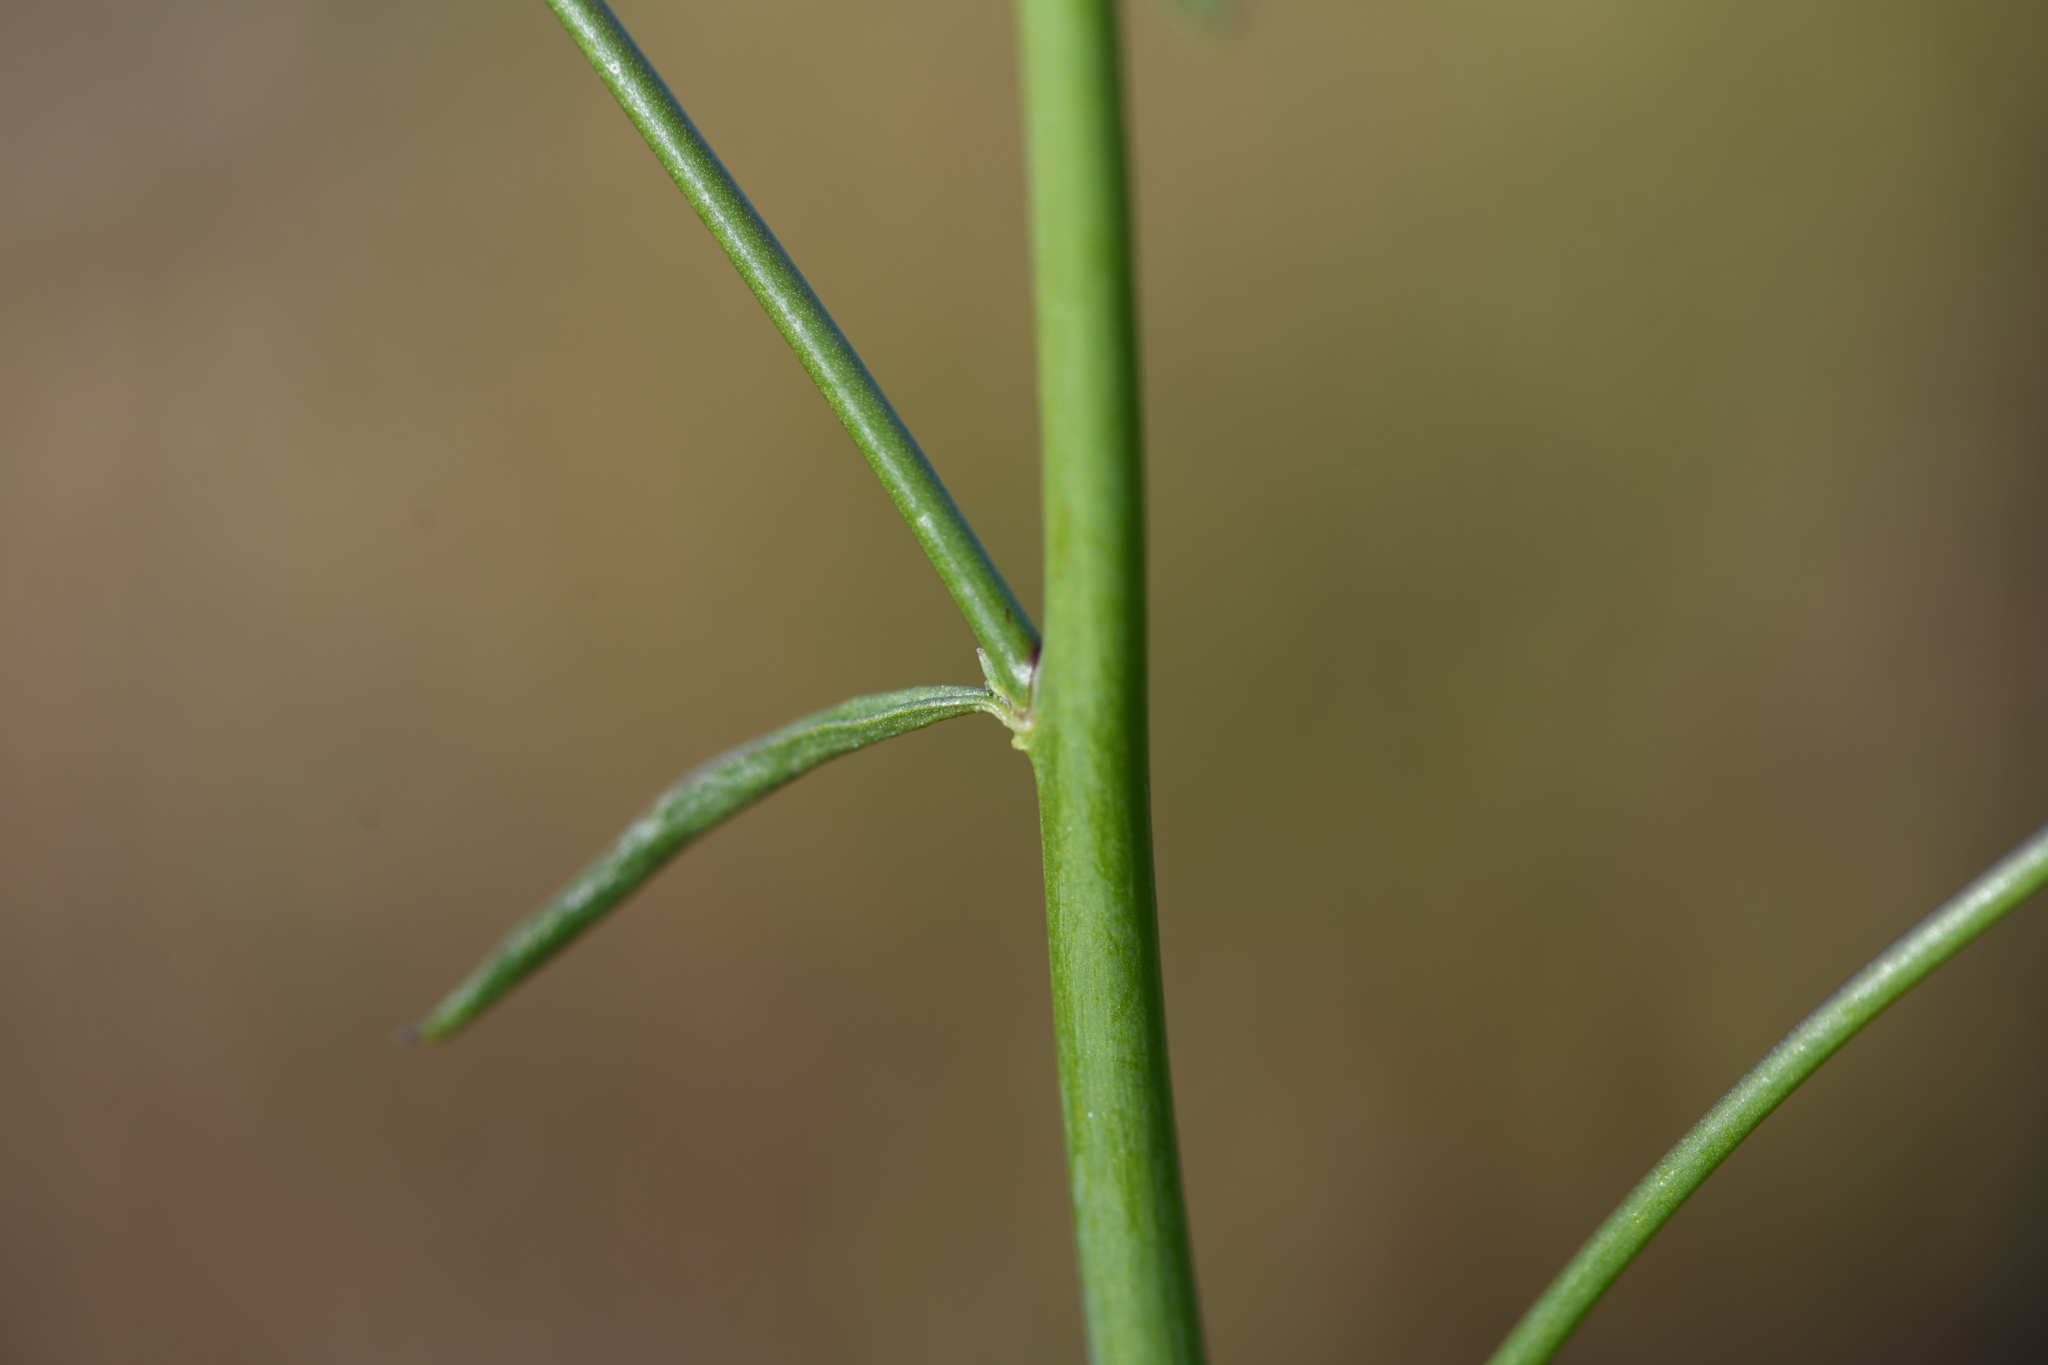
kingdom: Plantae
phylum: Tracheophyta
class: Magnoliopsida
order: Lamiales
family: Plantaginaceae
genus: Sairocarpus
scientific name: Sairocarpus coulterianus
